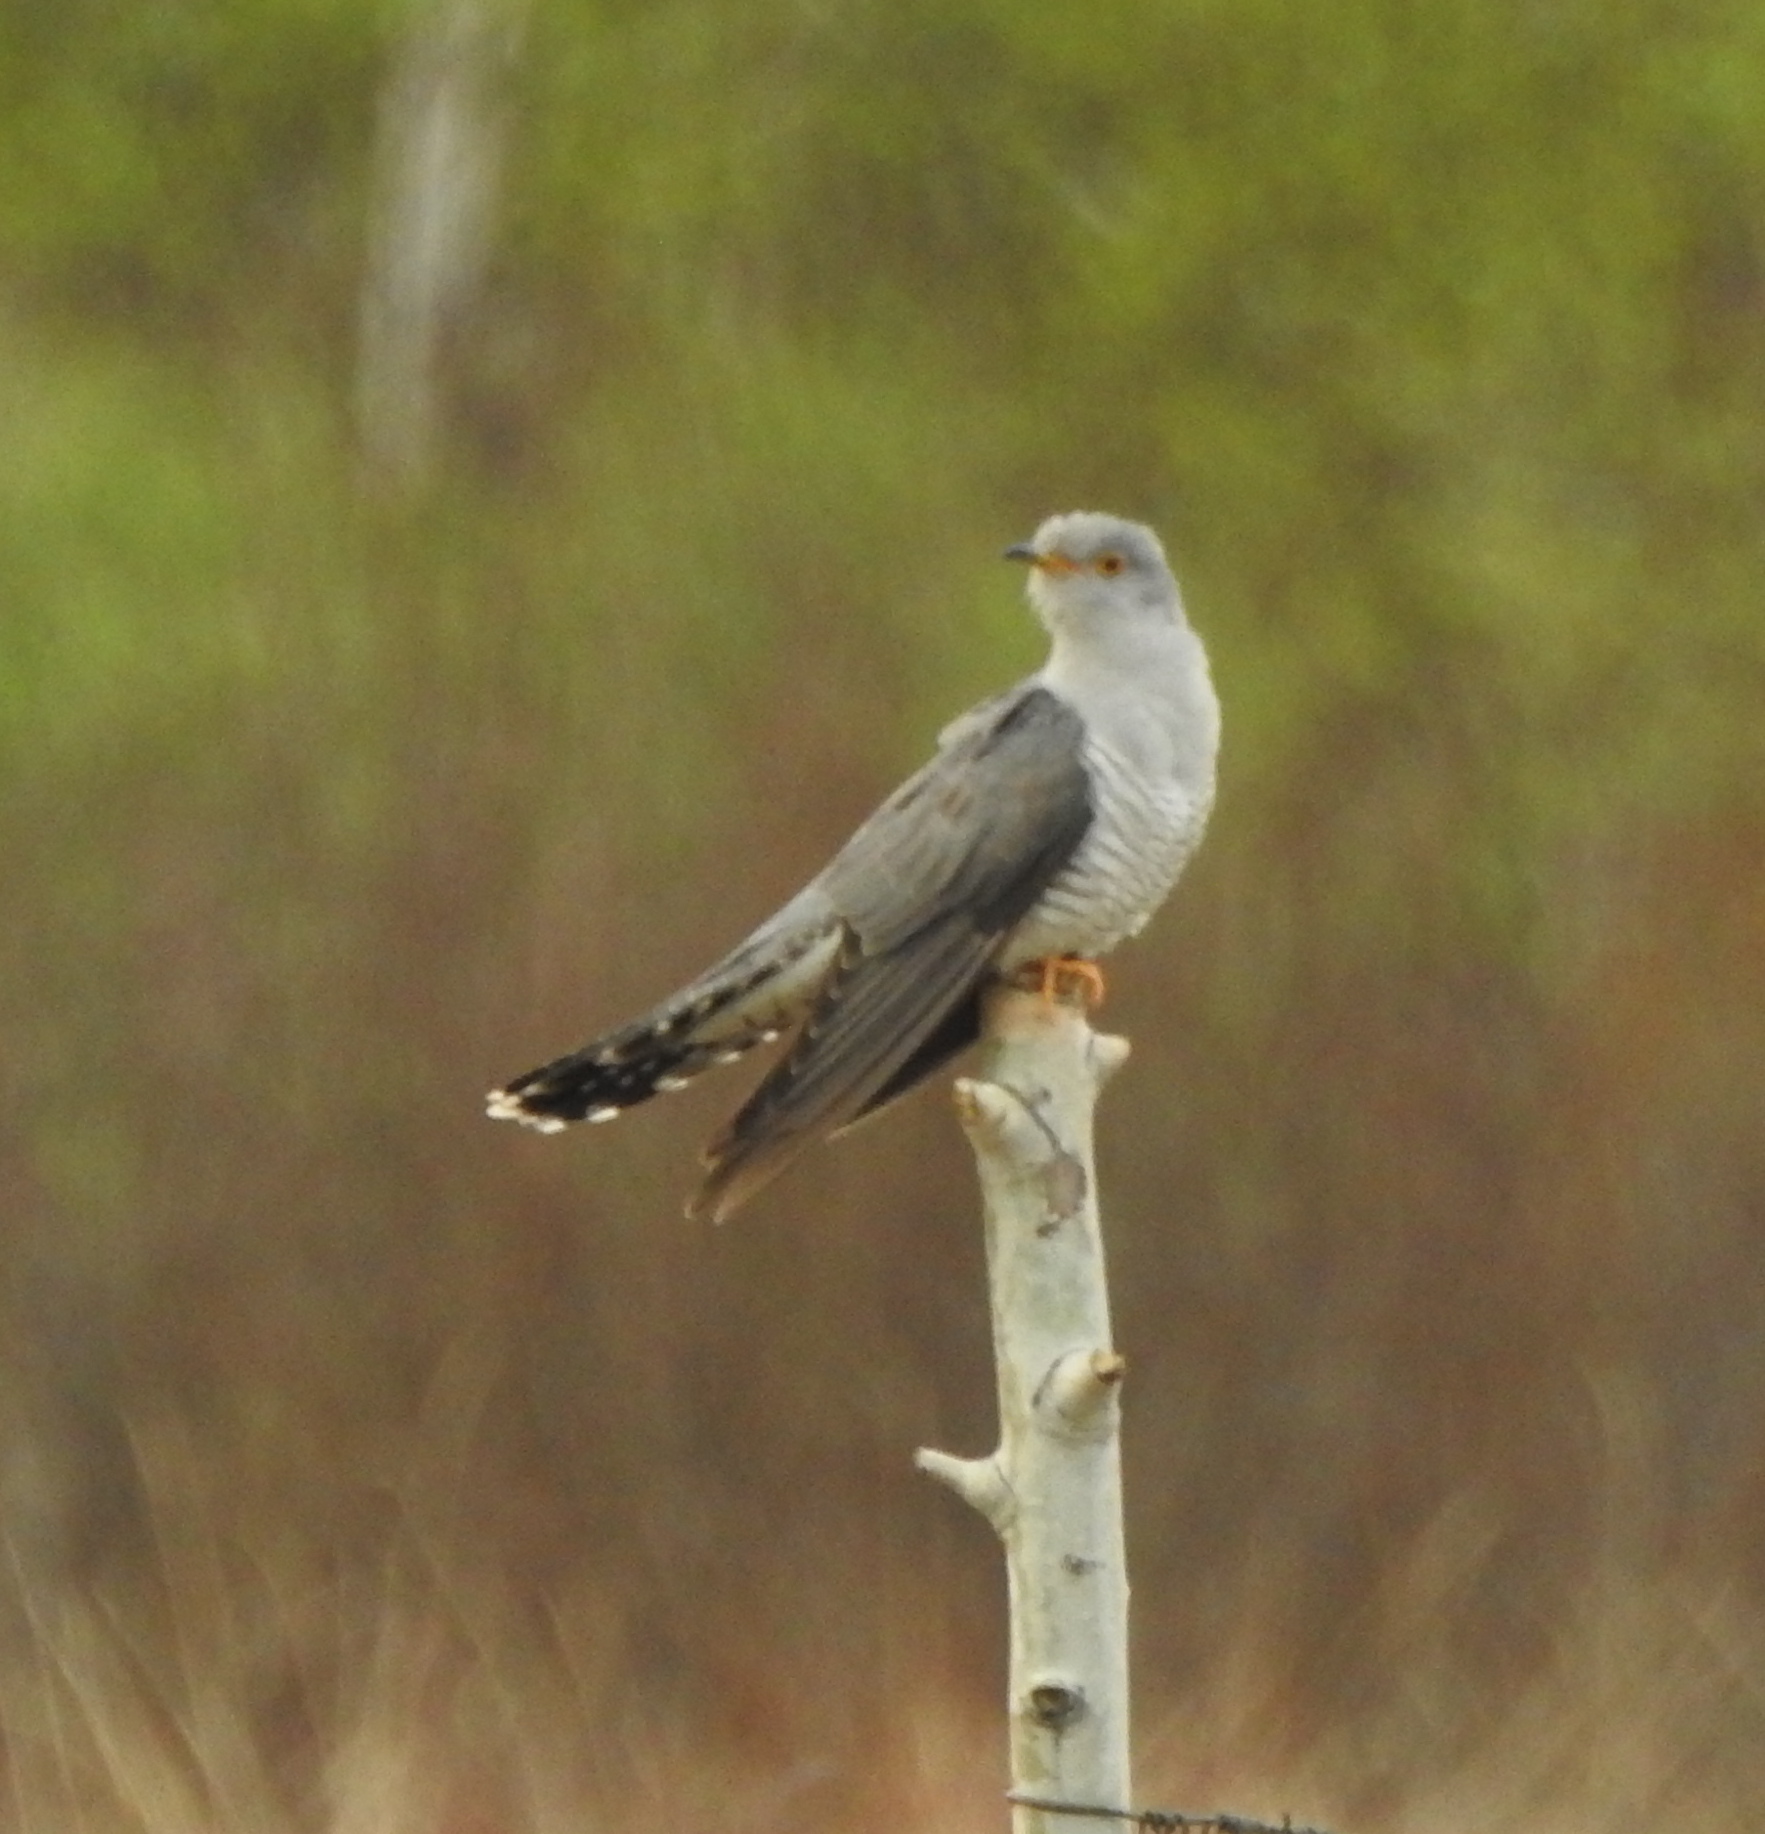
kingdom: Animalia
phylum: Chordata
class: Aves
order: Cuculiformes
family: Cuculidae
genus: Cuculus
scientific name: Cuculus canorus
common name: Common cuckoo
